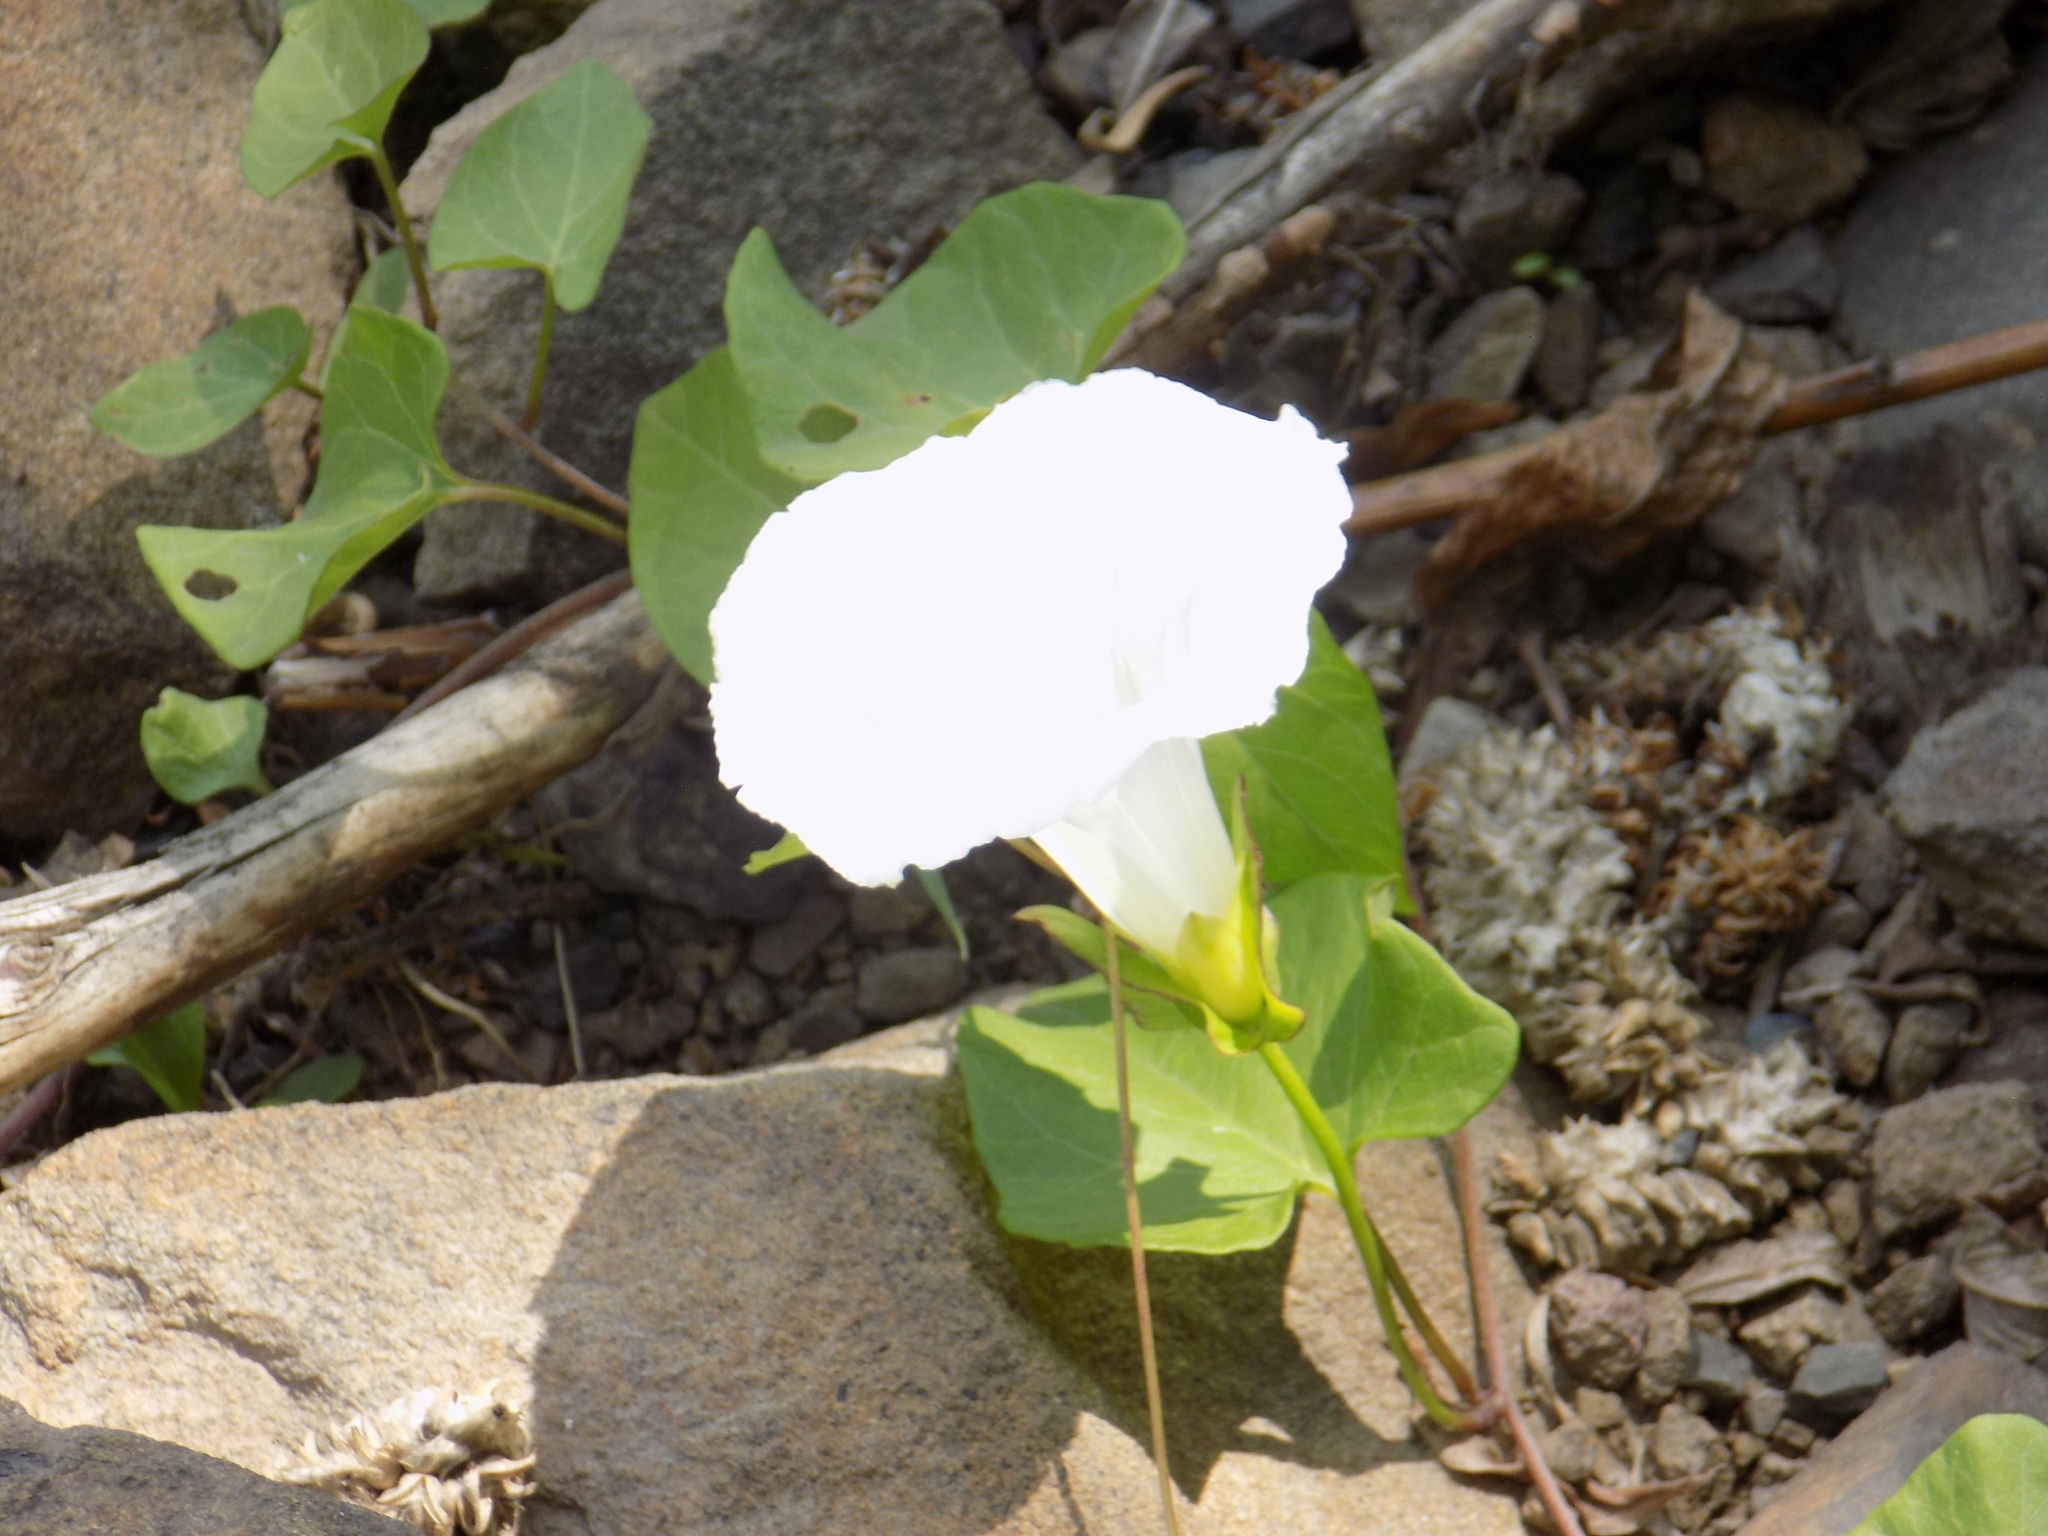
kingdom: Plantae
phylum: Tracheophyta
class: Magnoliopsida
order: Solanales
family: Convolvulaceae
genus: Calystegia
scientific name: Calystegia sepium
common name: Hedge bindweed
